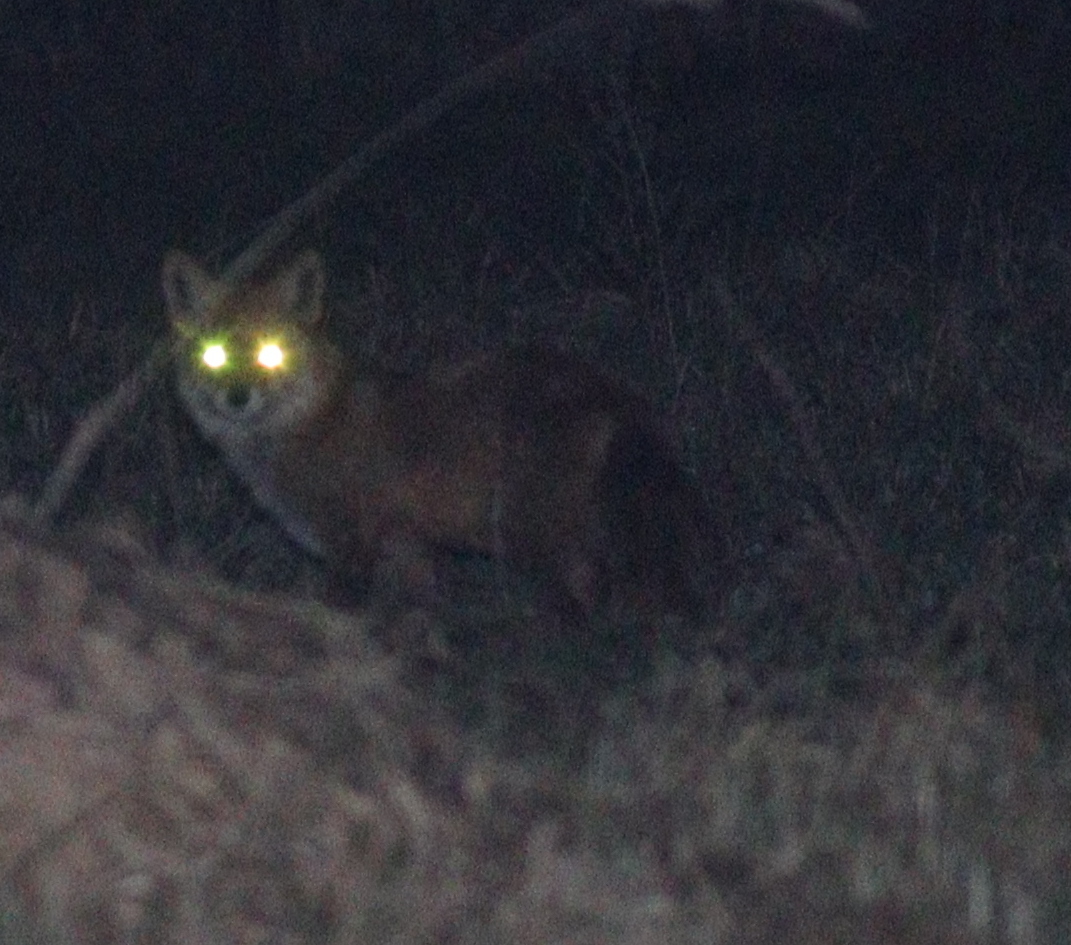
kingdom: Animalia
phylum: Chordata
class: Mammalia
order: Carnivora
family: Canidae
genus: Vulpes
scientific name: Vulpes vulpes
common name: Red fox
